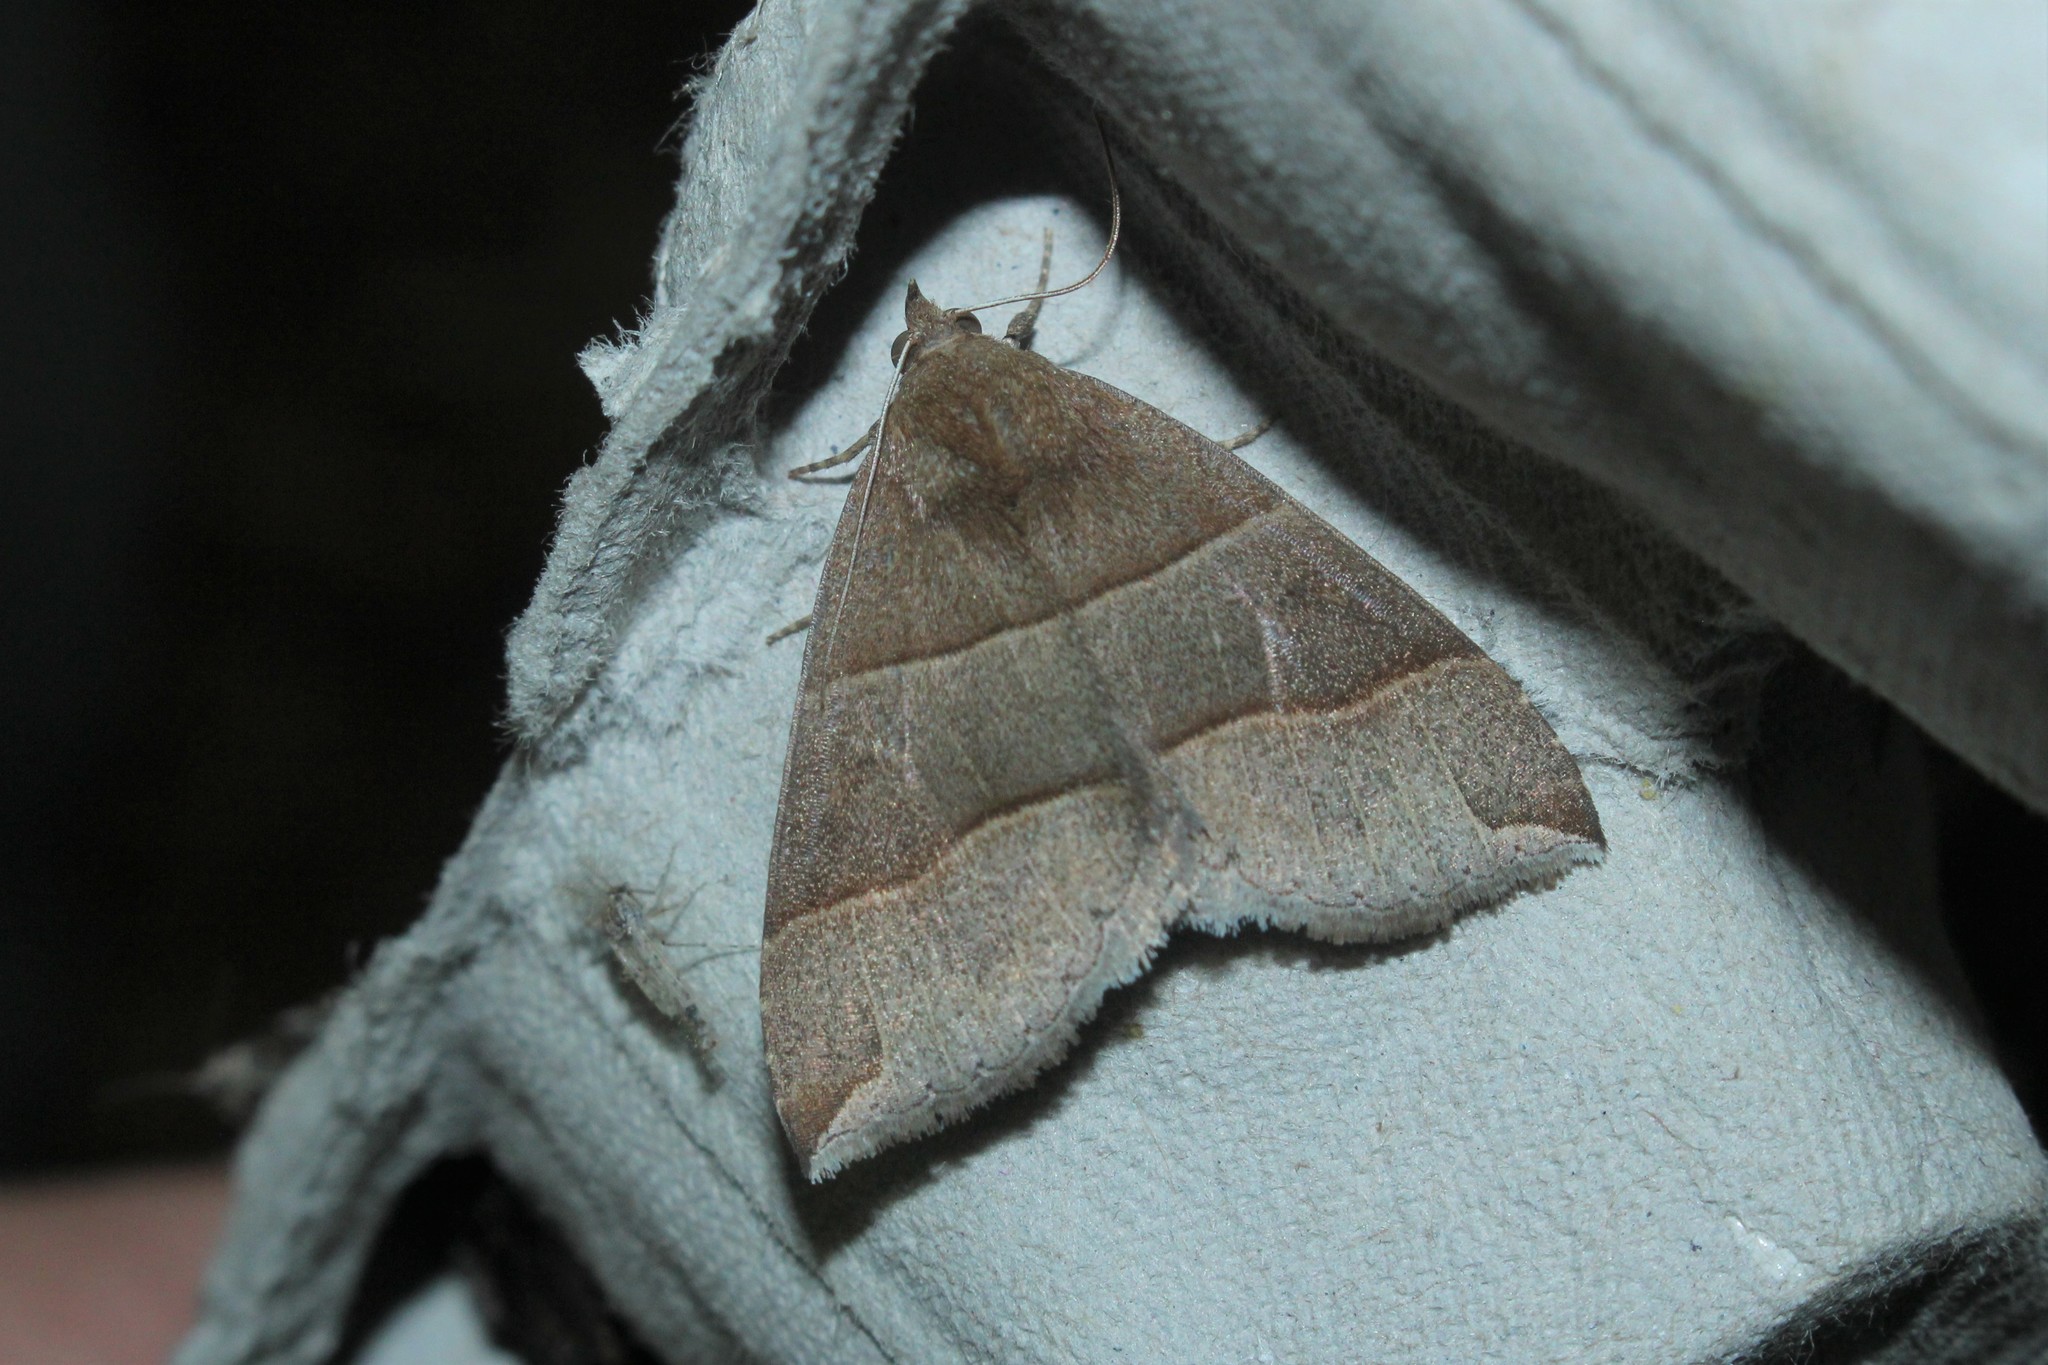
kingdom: Animalia
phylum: Arthropoda
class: Insecta
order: Lepidoptera
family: Erebidae
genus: Parallelia
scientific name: Parallelia bistriaris
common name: Maple looper moth
